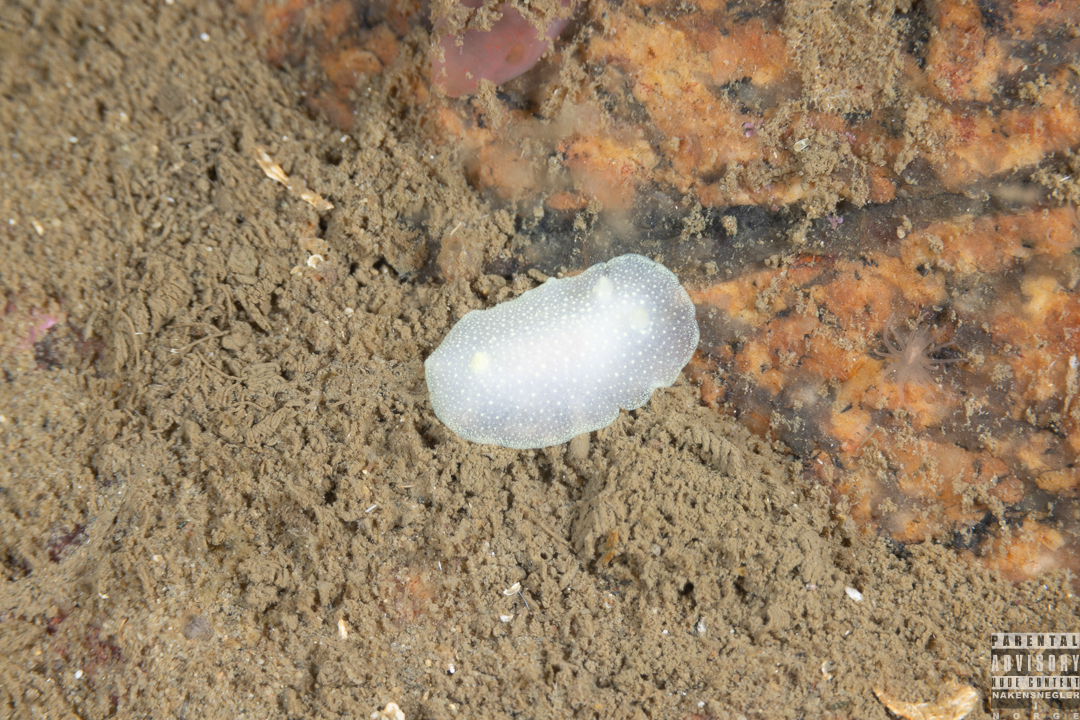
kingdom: Animalia
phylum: Mollusca
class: Gastropoda
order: Nudibranchia
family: Cadlinidae
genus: Cadlina
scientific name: Cadlina laevis
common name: White atlantic cadlina
